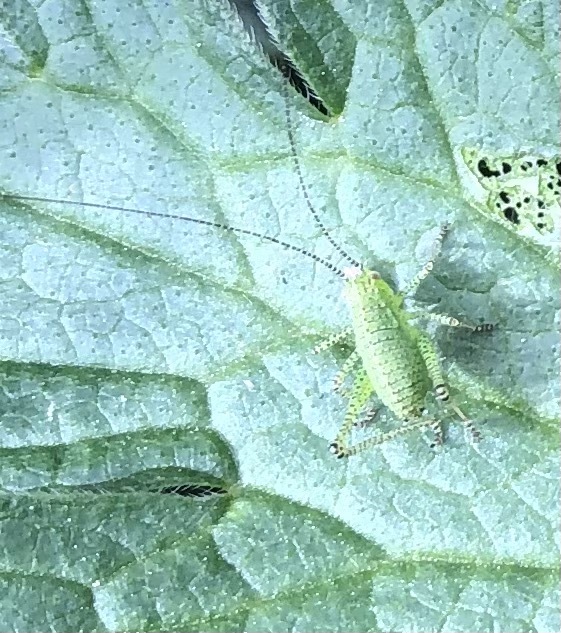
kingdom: Animalia
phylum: Arthropoda
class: Insecta
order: Orthoptera
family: Tettigoniidae
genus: Leptophyes
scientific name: Leptophyes punctatissima
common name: Speckled bush-cricket
